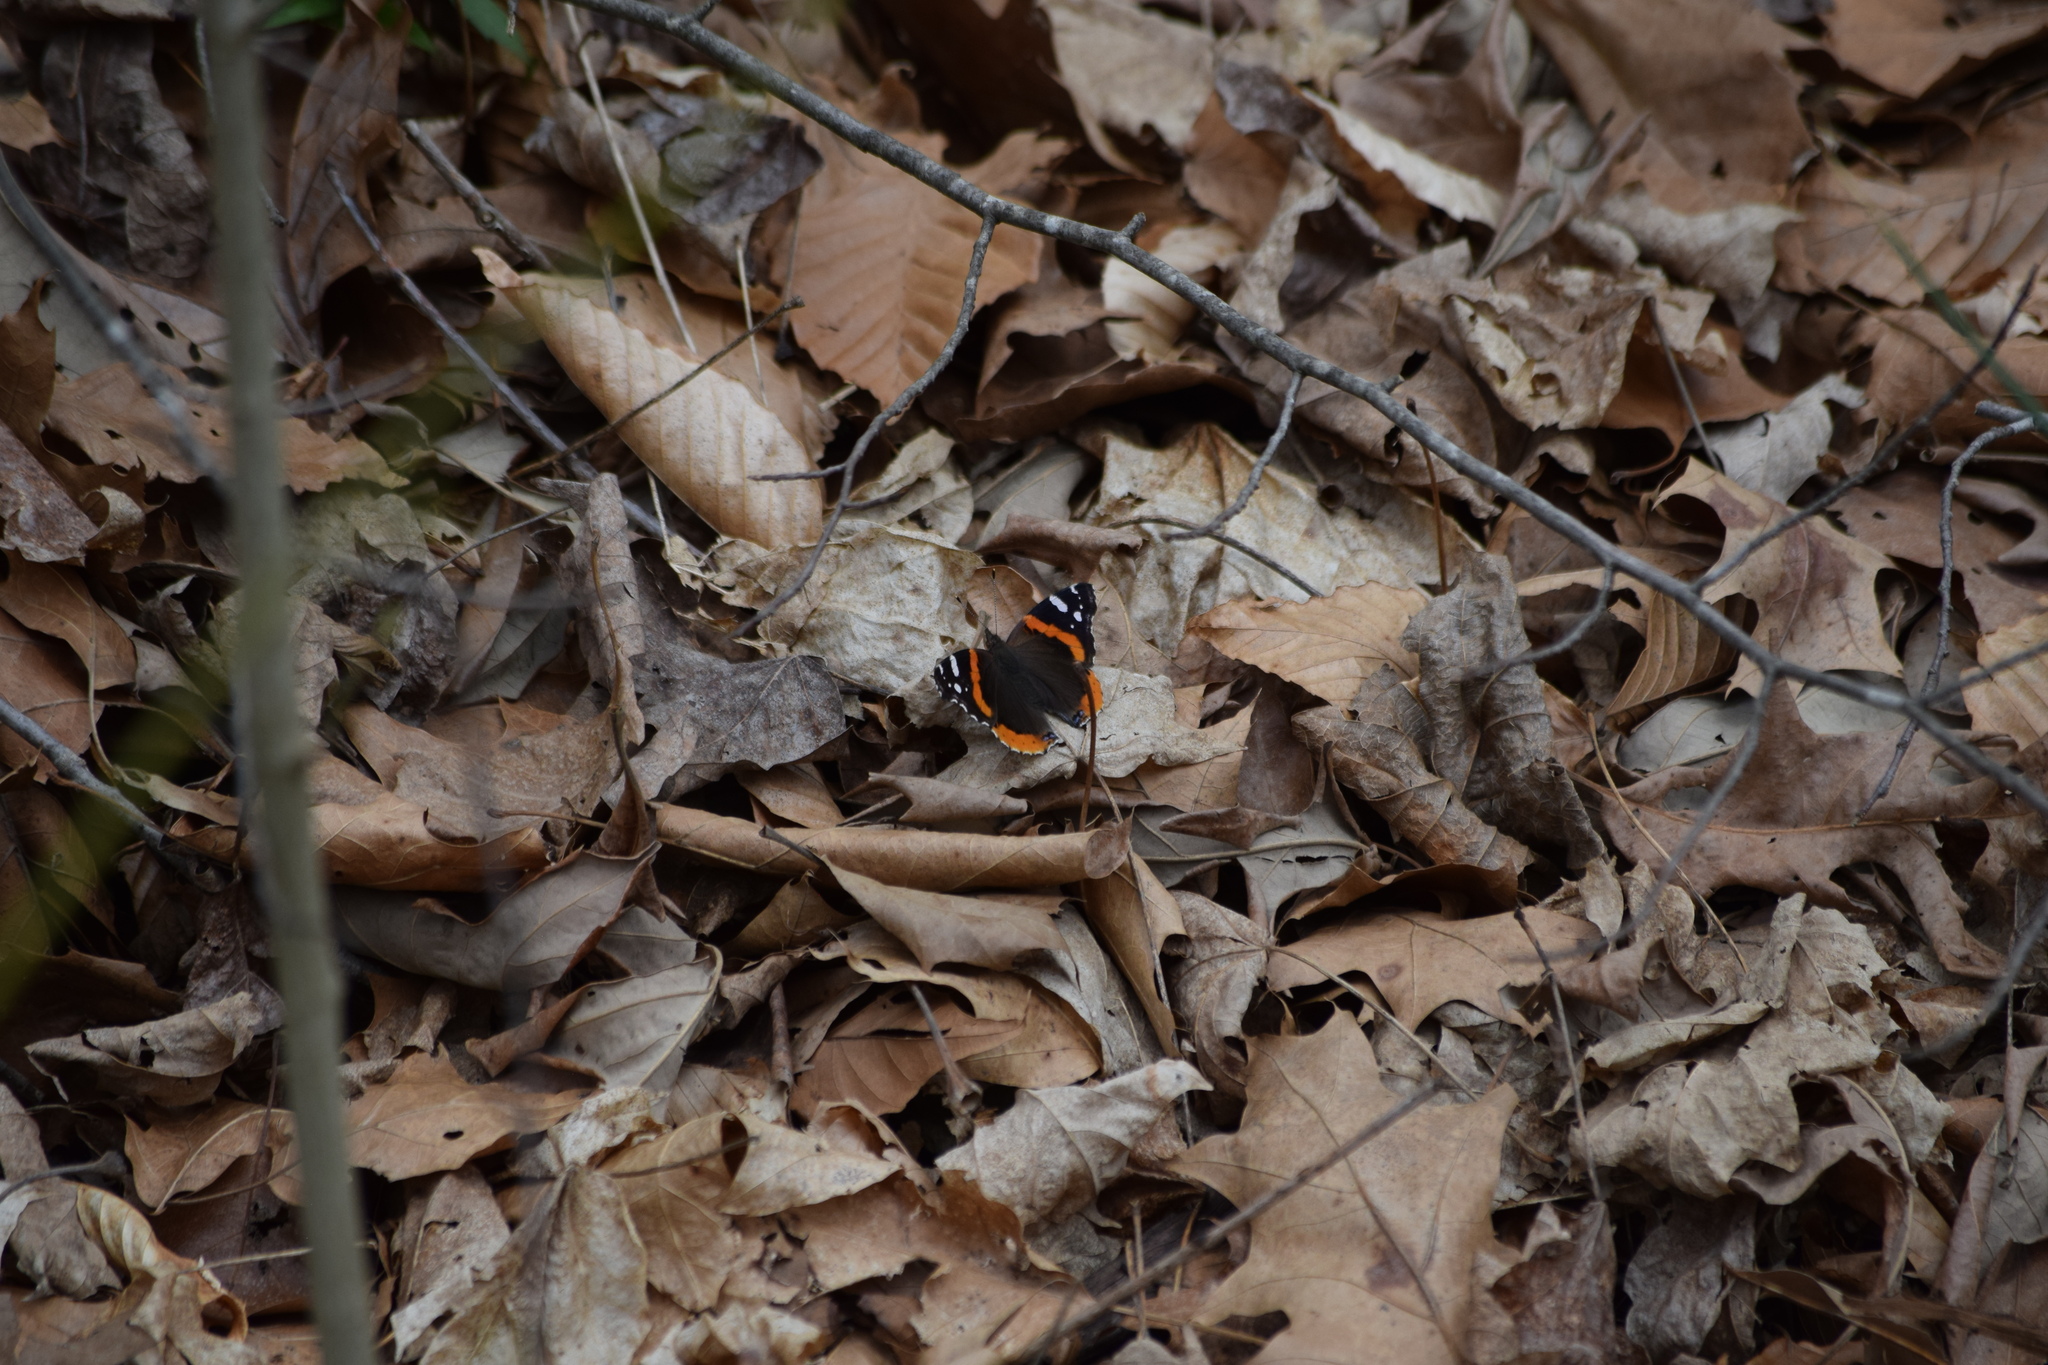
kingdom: Animalia
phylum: Arthropoda
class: Insecta
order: Lepidoptera
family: Nymphalidae
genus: Vanessa
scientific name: Vanessa atalanta
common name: Red admiral
